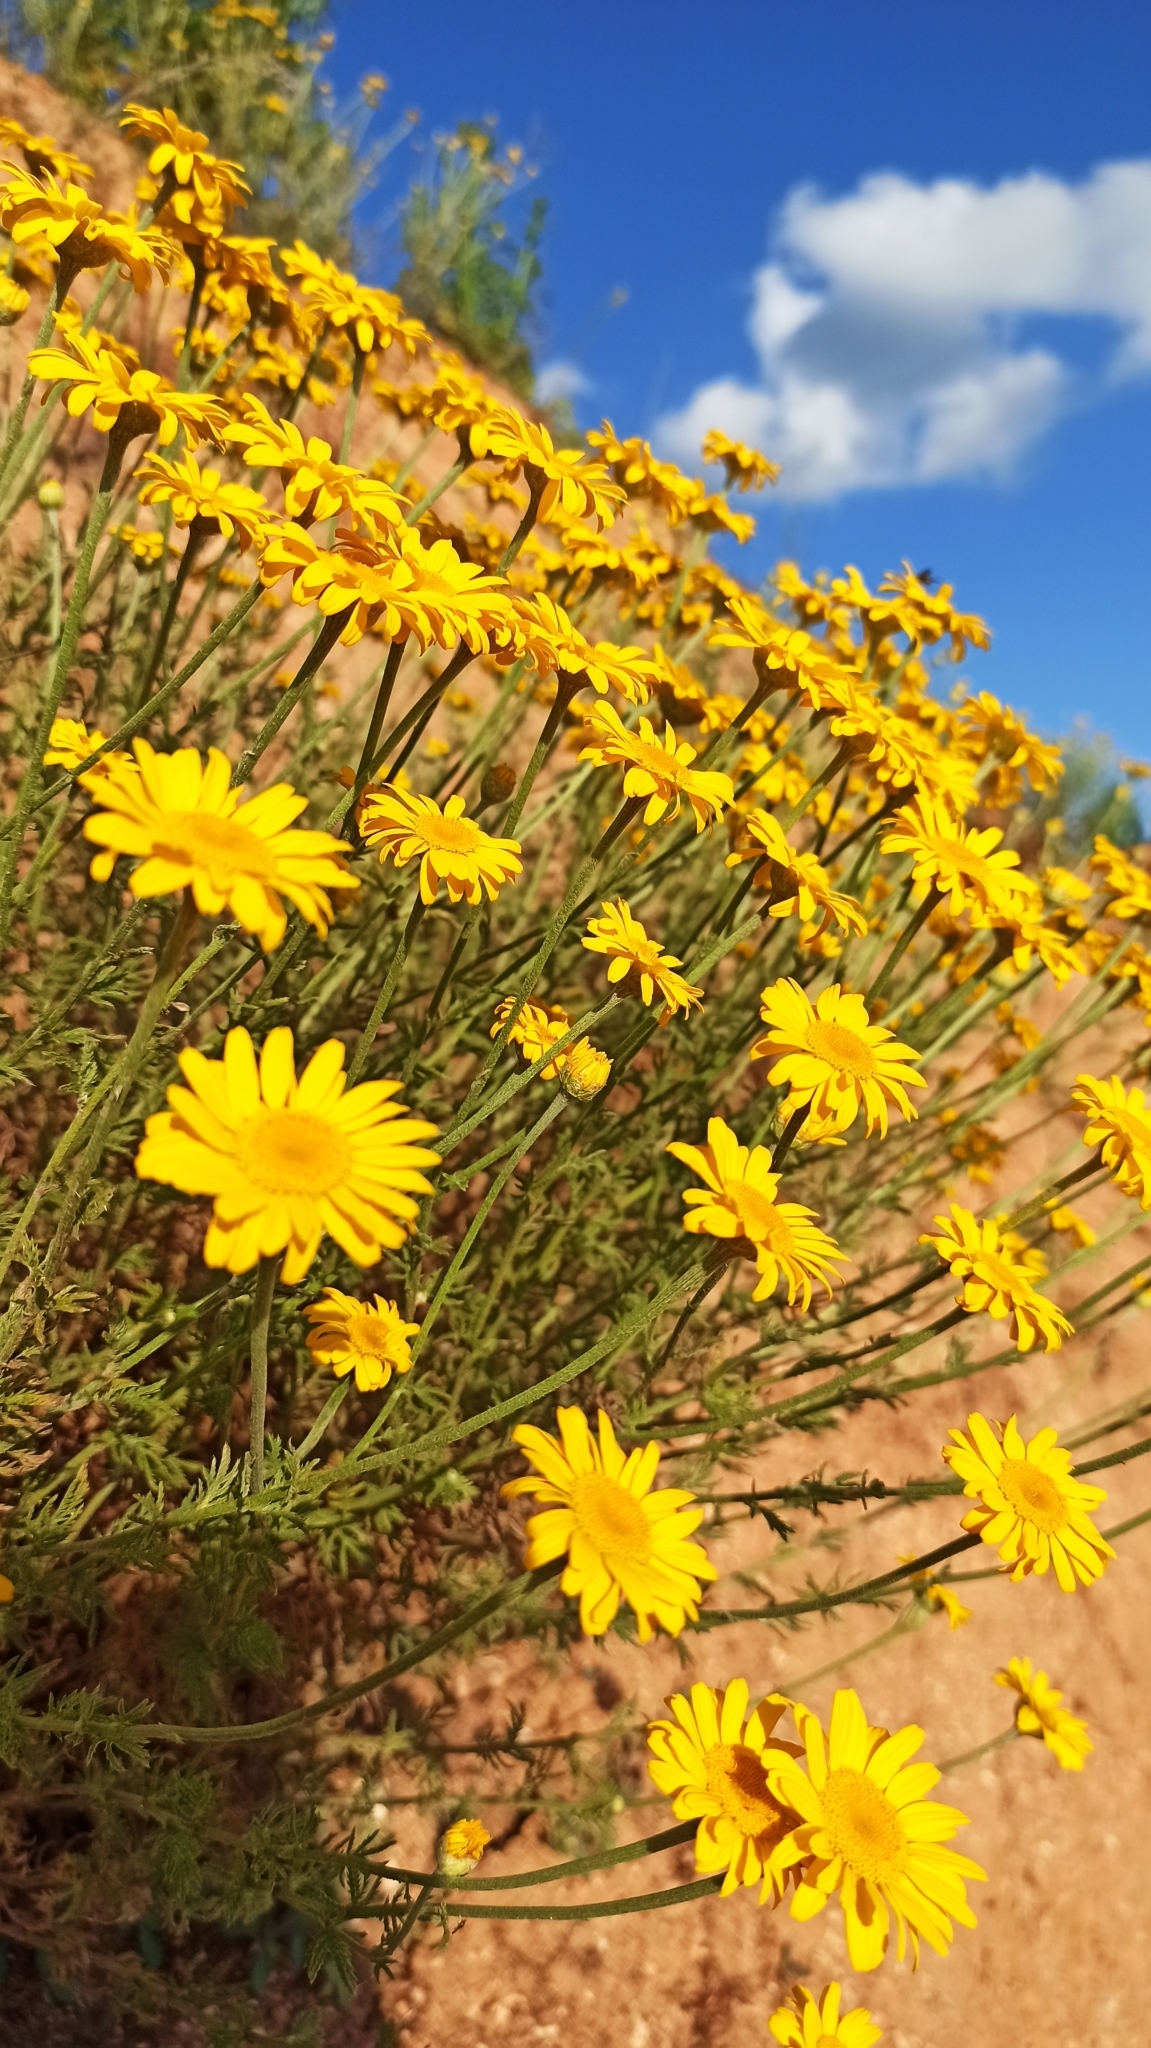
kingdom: Plantae
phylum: Tracheophyta
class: Magnoliopsida
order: Asterales
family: Asteraceae
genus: Cota
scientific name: Cota tinctoria
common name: Golden chamomile
